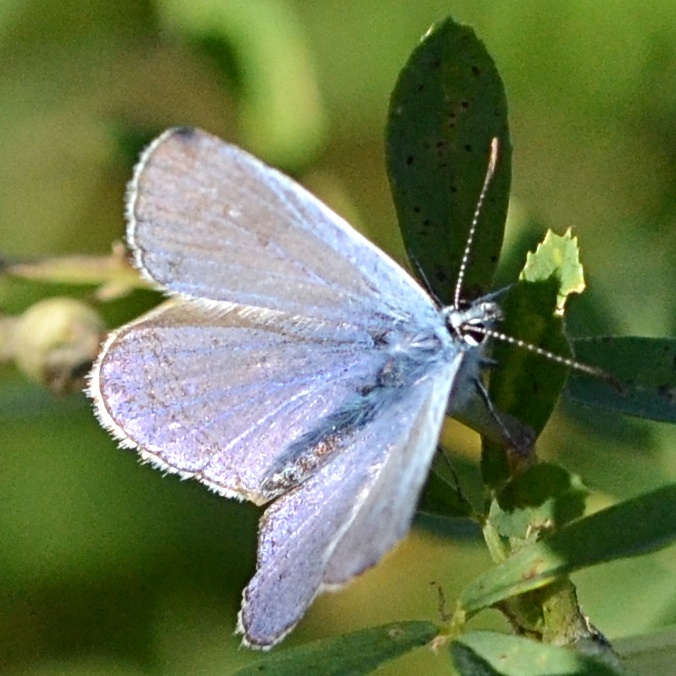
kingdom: Animalia
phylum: Arthropoda
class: Insecta
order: Lepidoptera
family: Lycaenidae
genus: Polyommatus
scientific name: Polyommatus icarus
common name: Common blue
